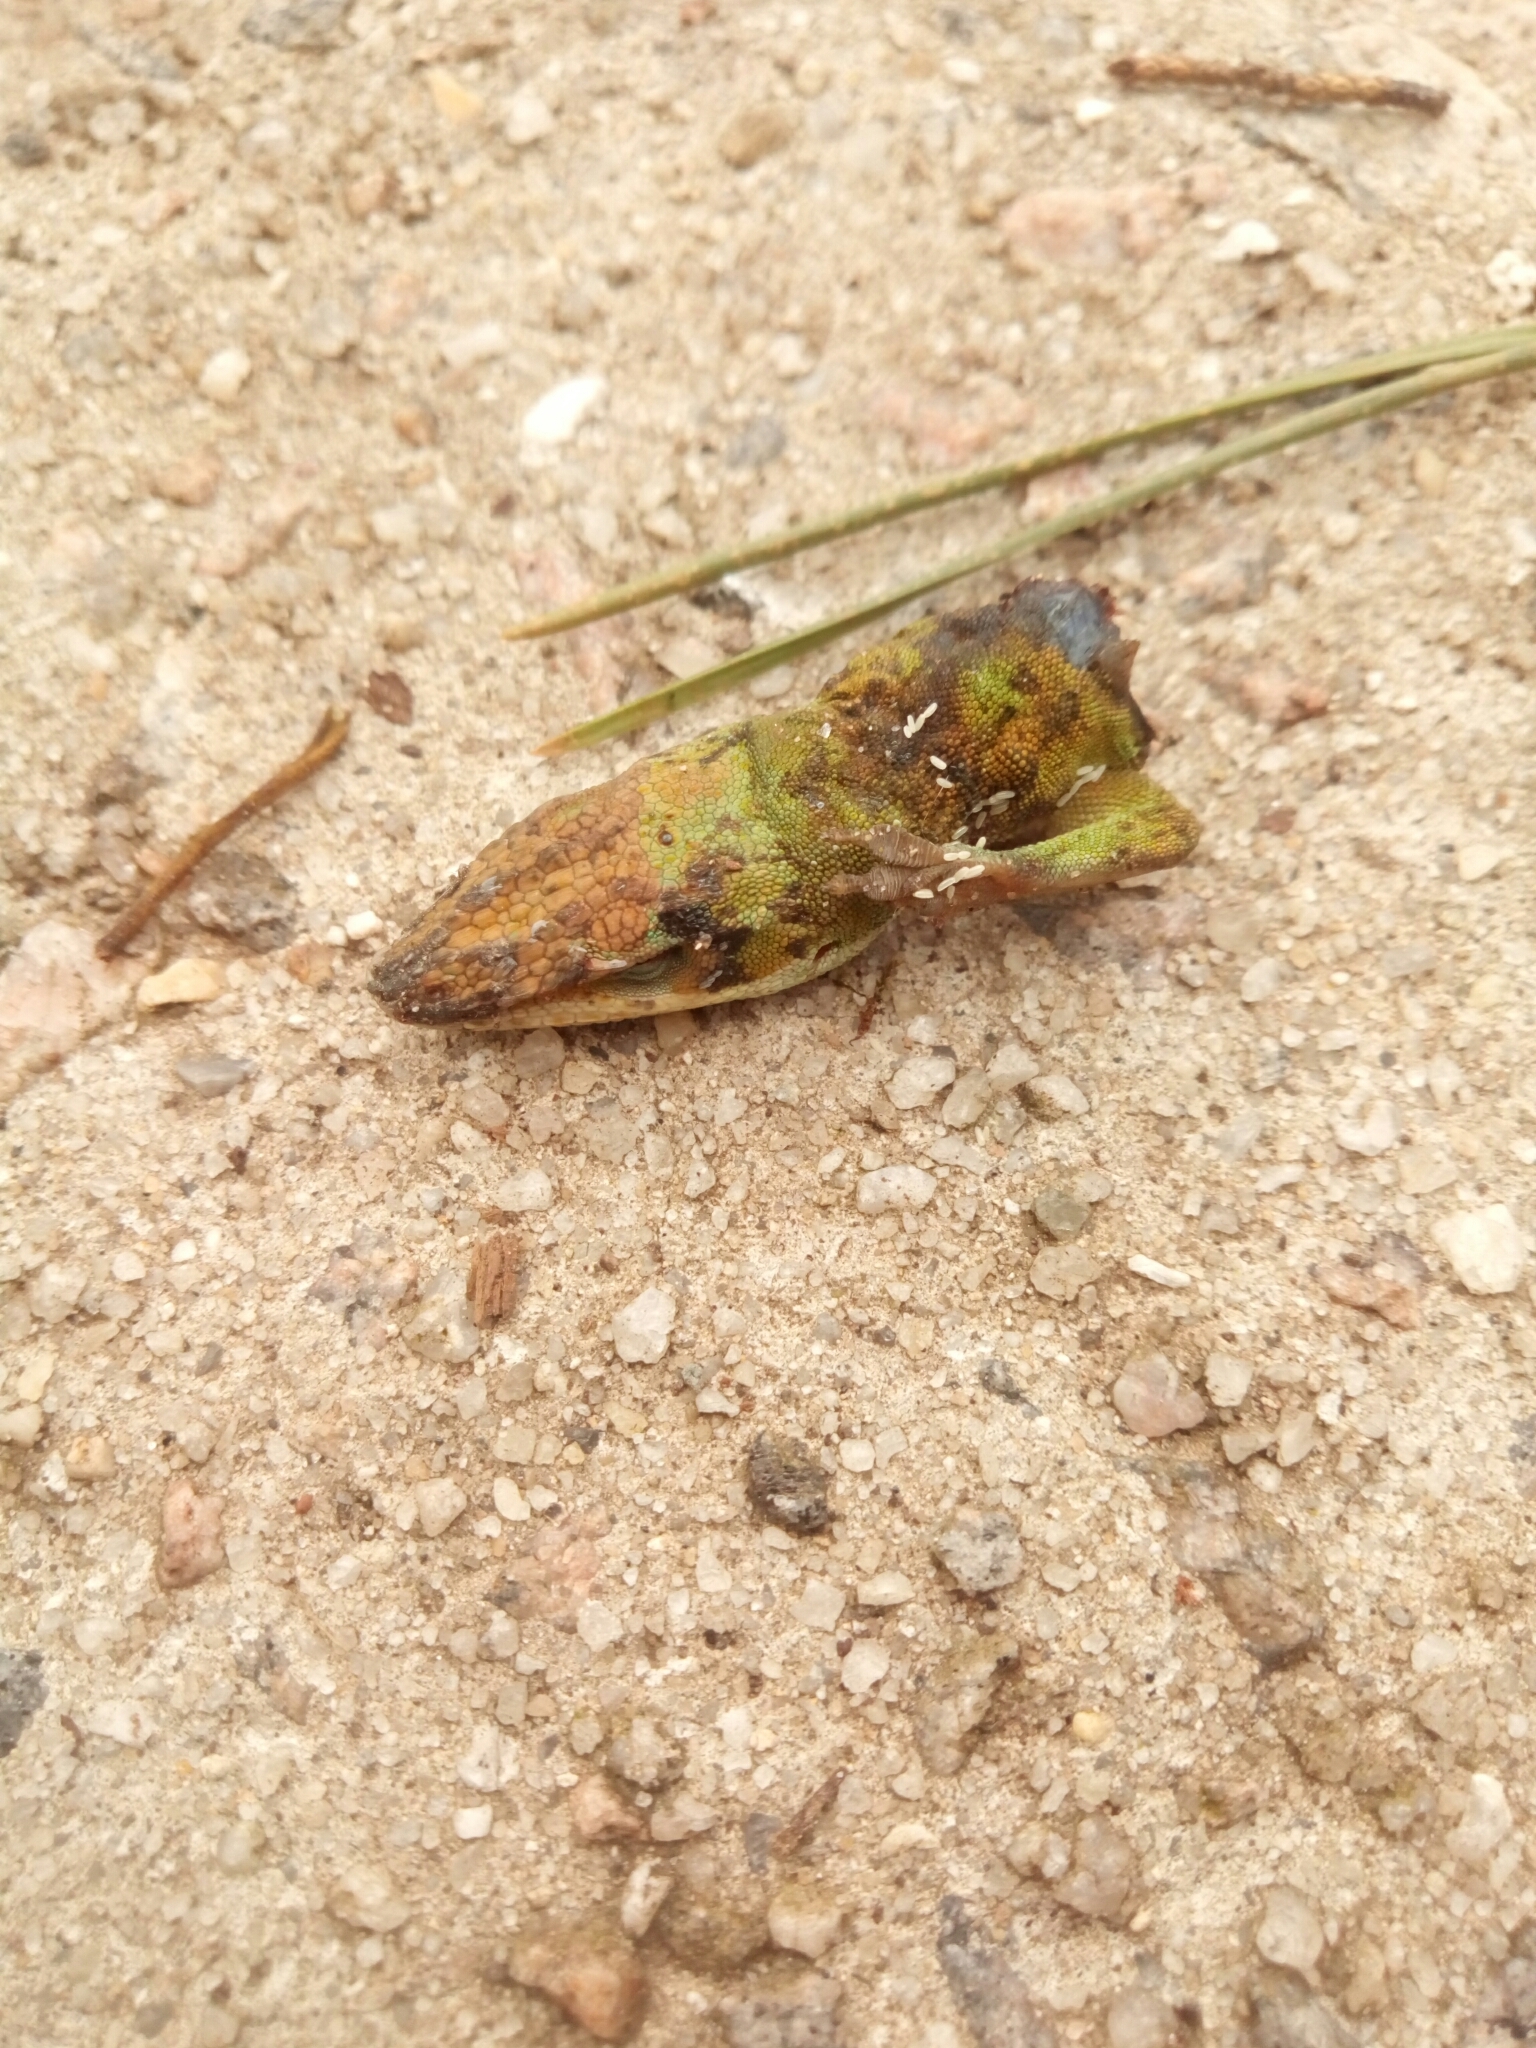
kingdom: Animalia
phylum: Chordata
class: Squamata
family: Dactyloidae
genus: Anolis
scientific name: Anolis carolinensis
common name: Green anole
